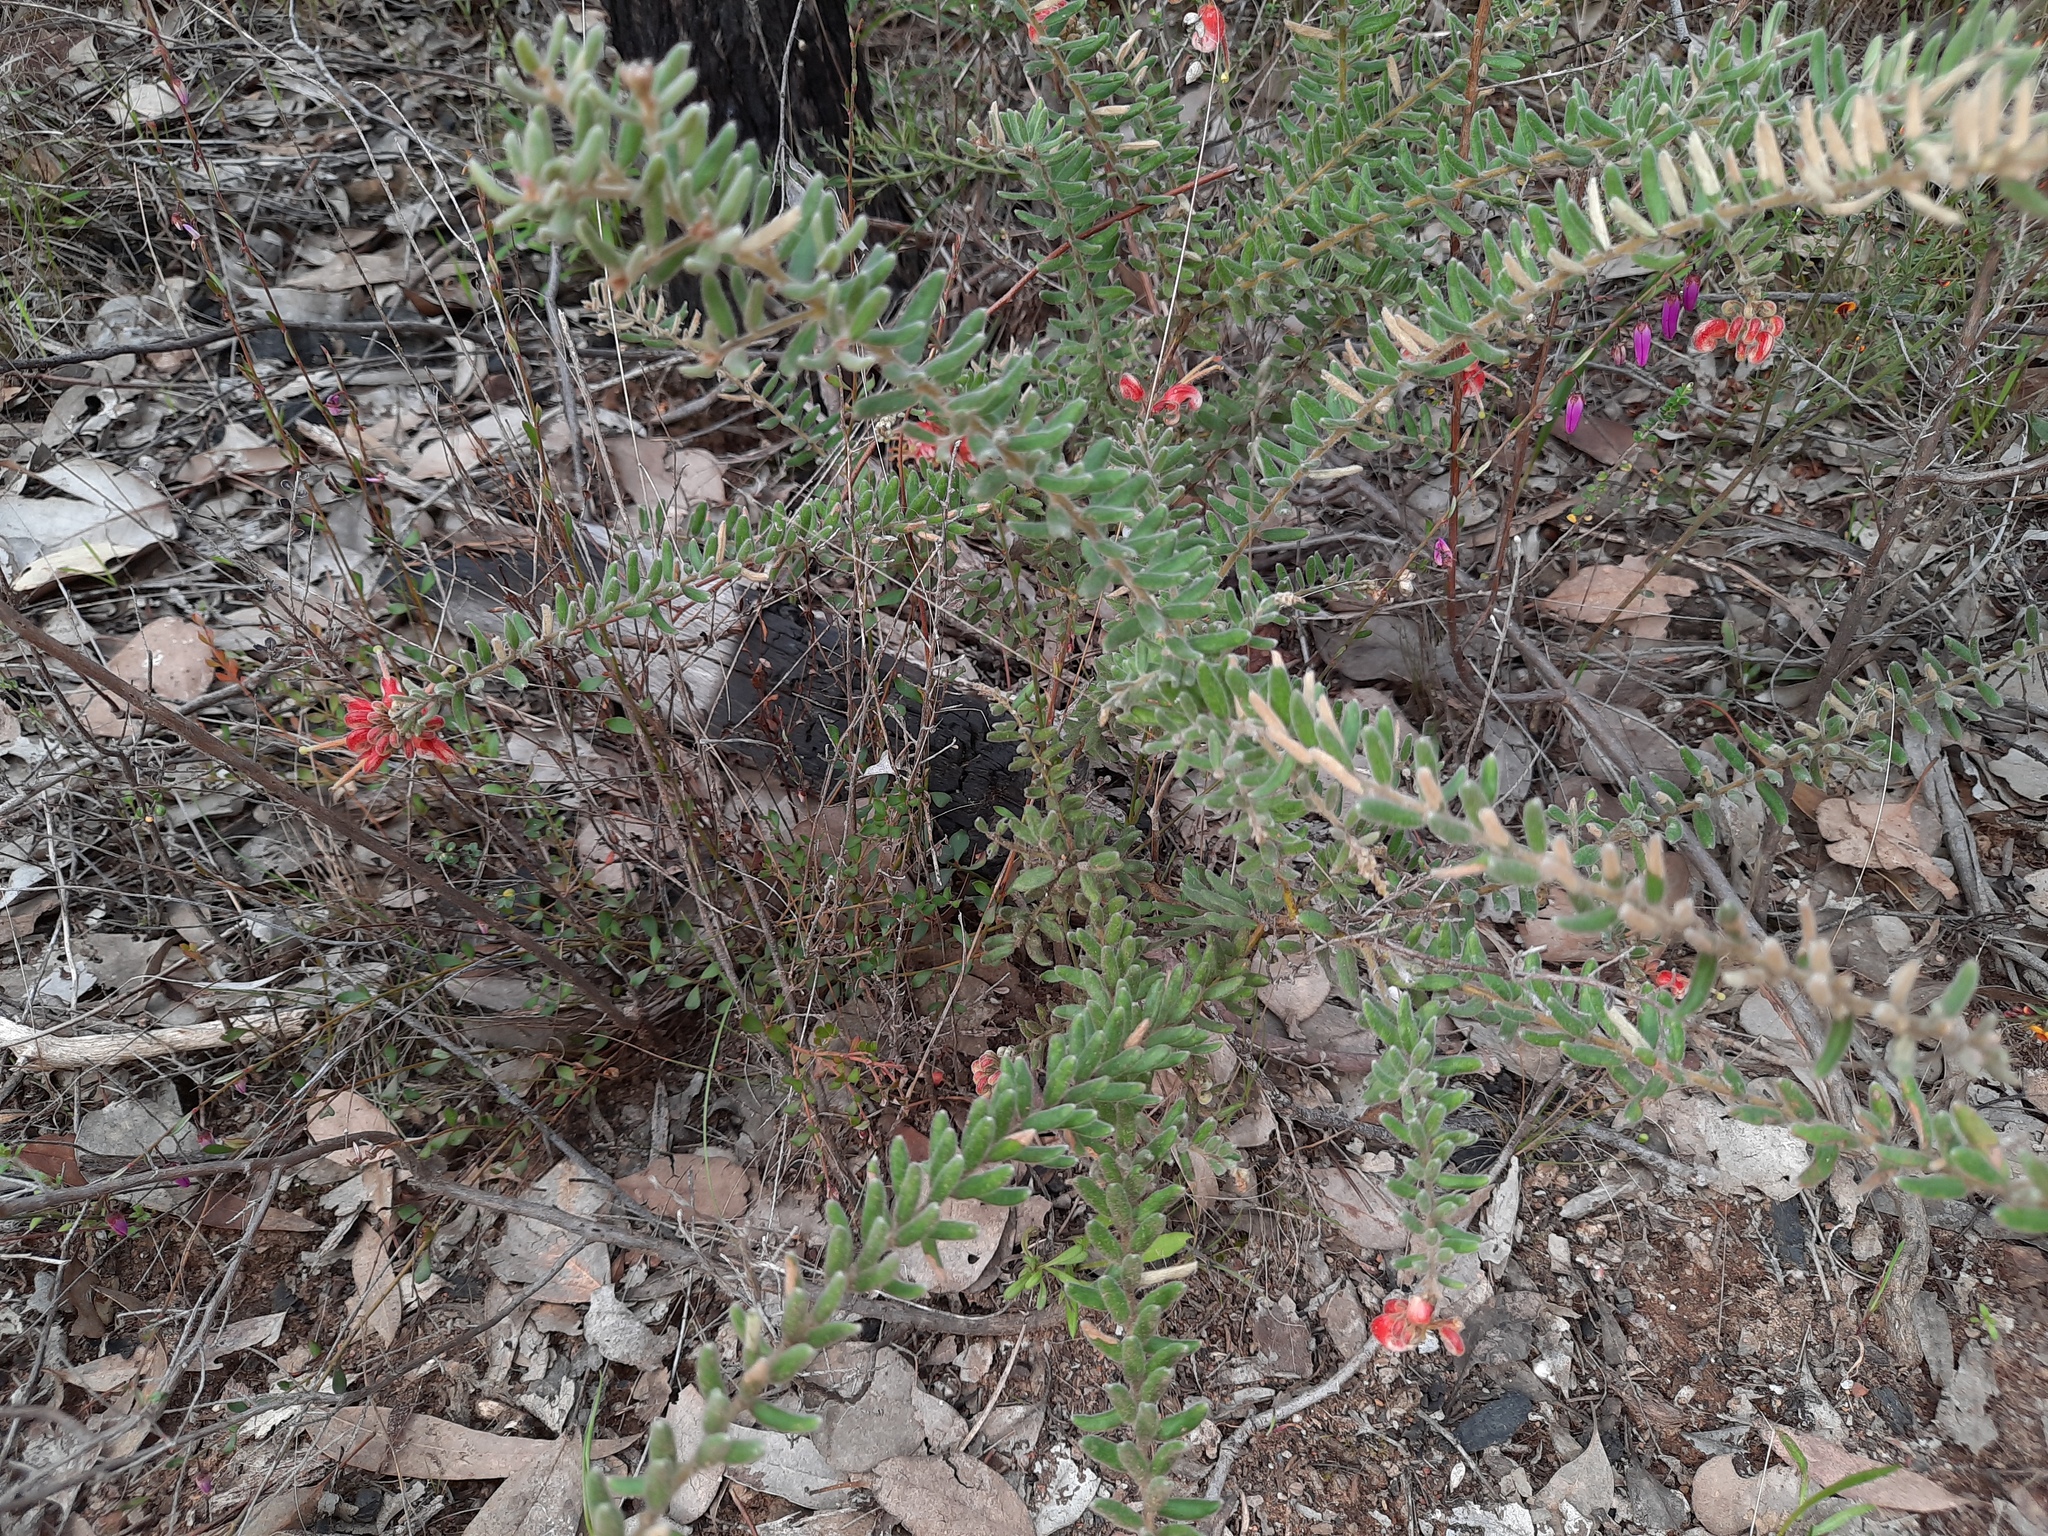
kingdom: Plantae
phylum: Tracheophyta
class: Magnoliopsida
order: Proteales
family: Proteaceae
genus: Grevillea
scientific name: Grevillea alpina
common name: Catclaws grevillea
